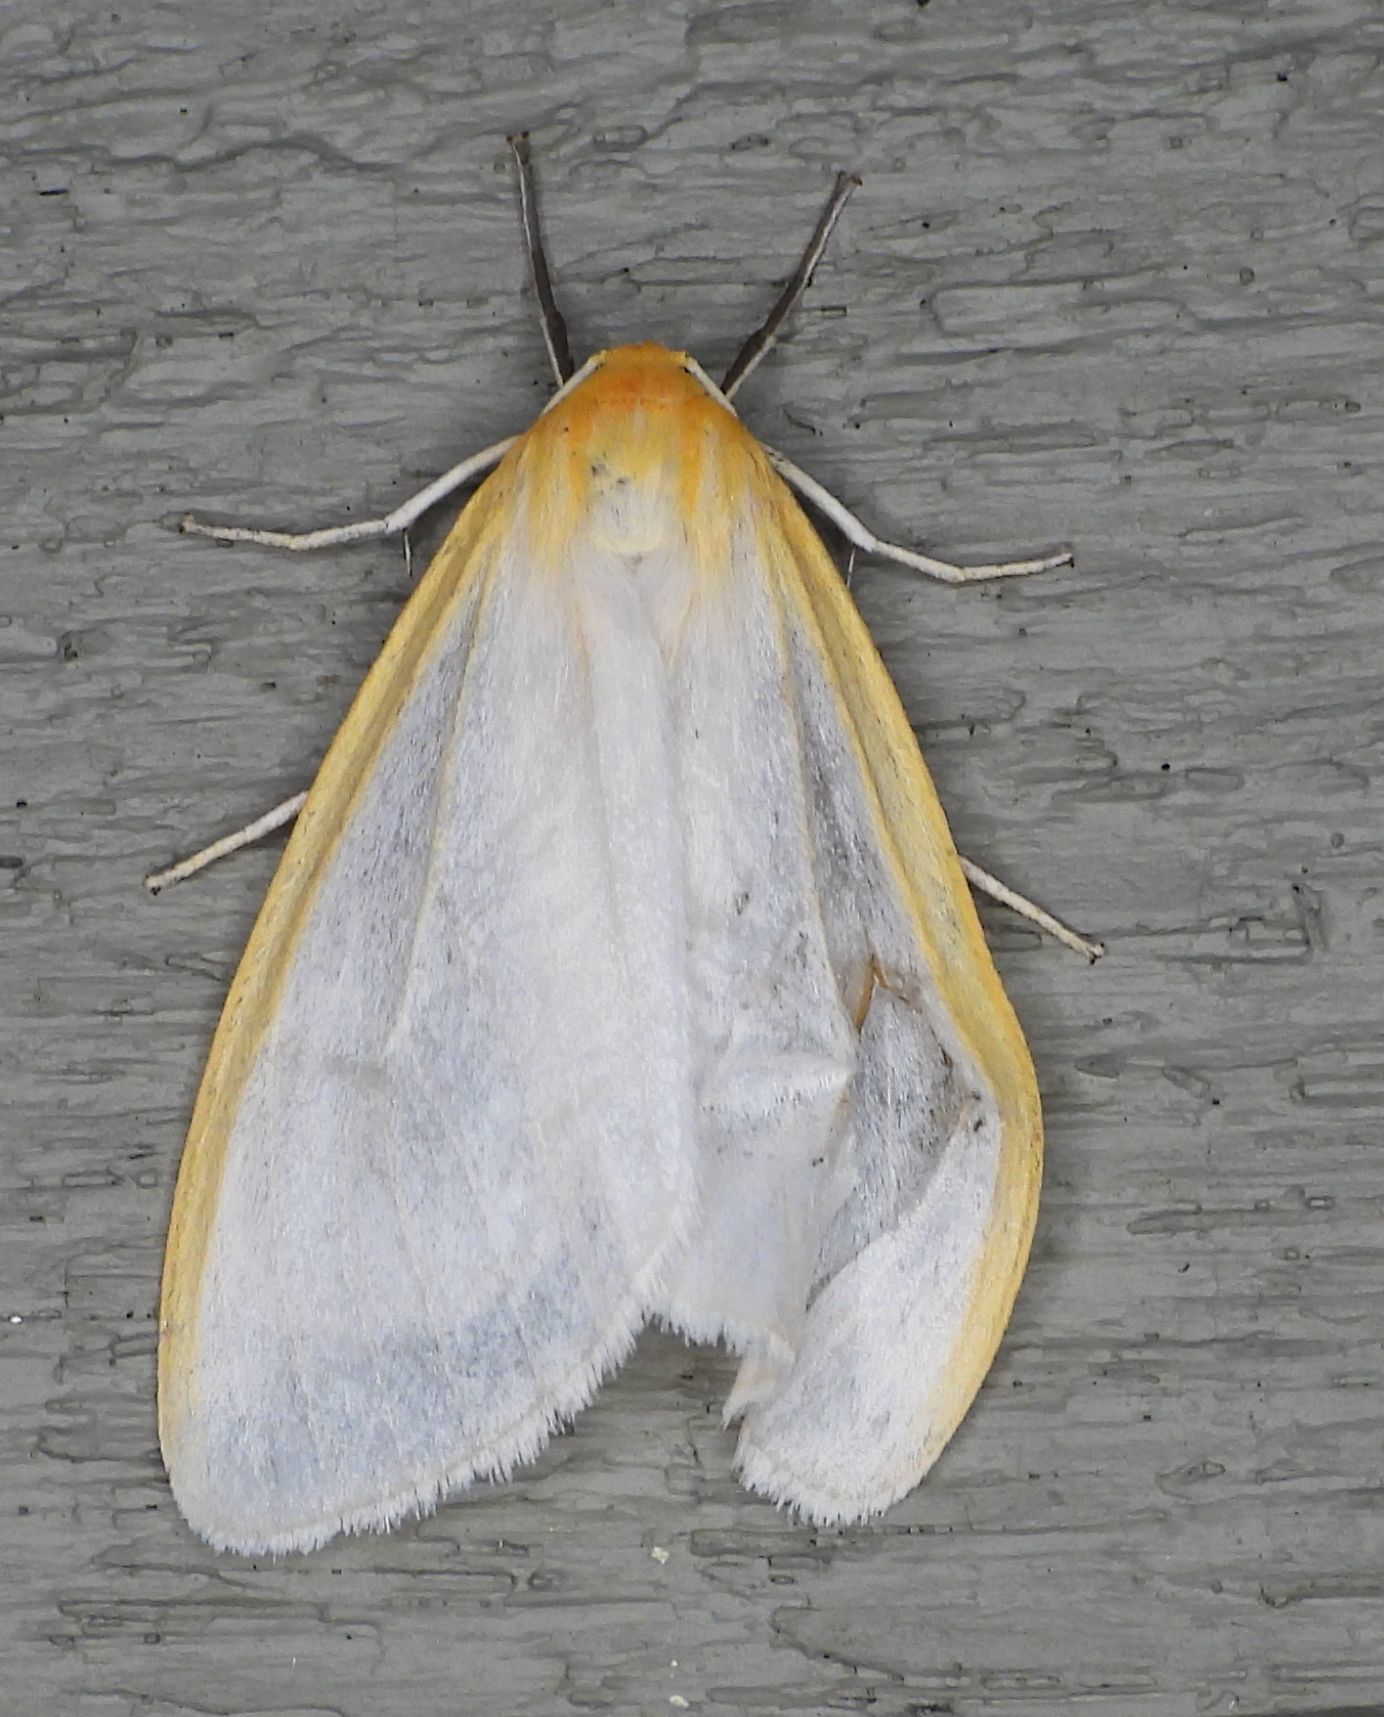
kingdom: Animalia
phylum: Arthropoda
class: Insecta
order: Lepidoptera
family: Erebidae
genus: Cycnia
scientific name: Cycnia tenera
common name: Delicate cycnia moth
